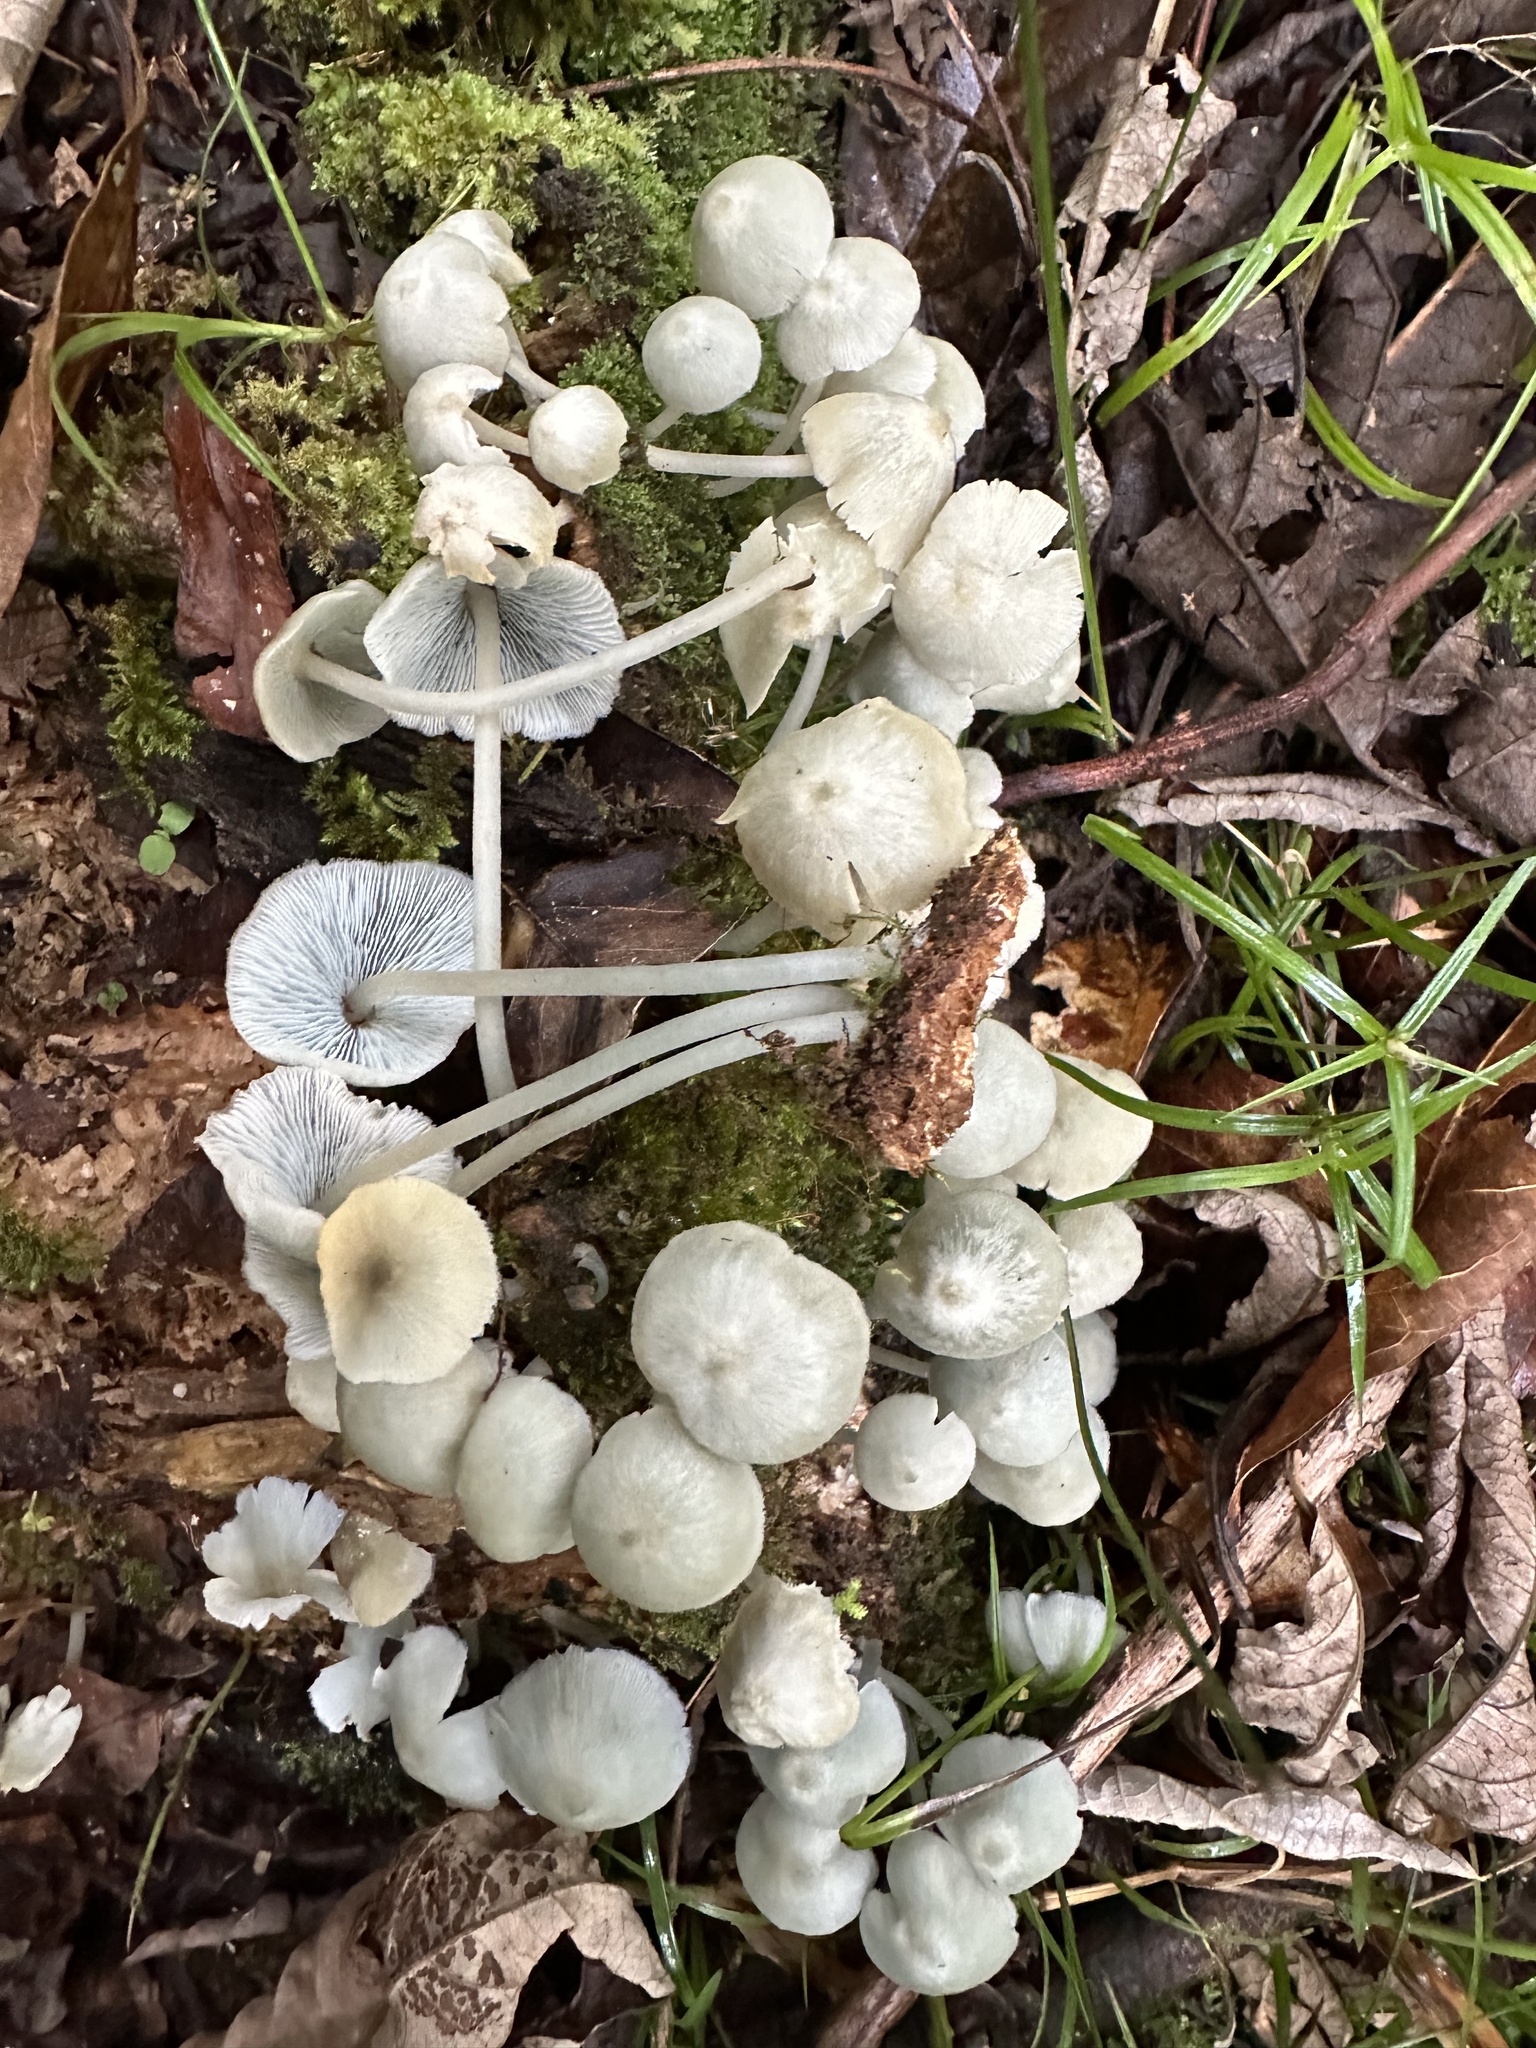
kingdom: Fungi
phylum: Basidiomycota
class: Agaricomycetes
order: Agaricales
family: Marasmiaceae
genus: Clitocybula
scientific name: Clitocybula azurea
